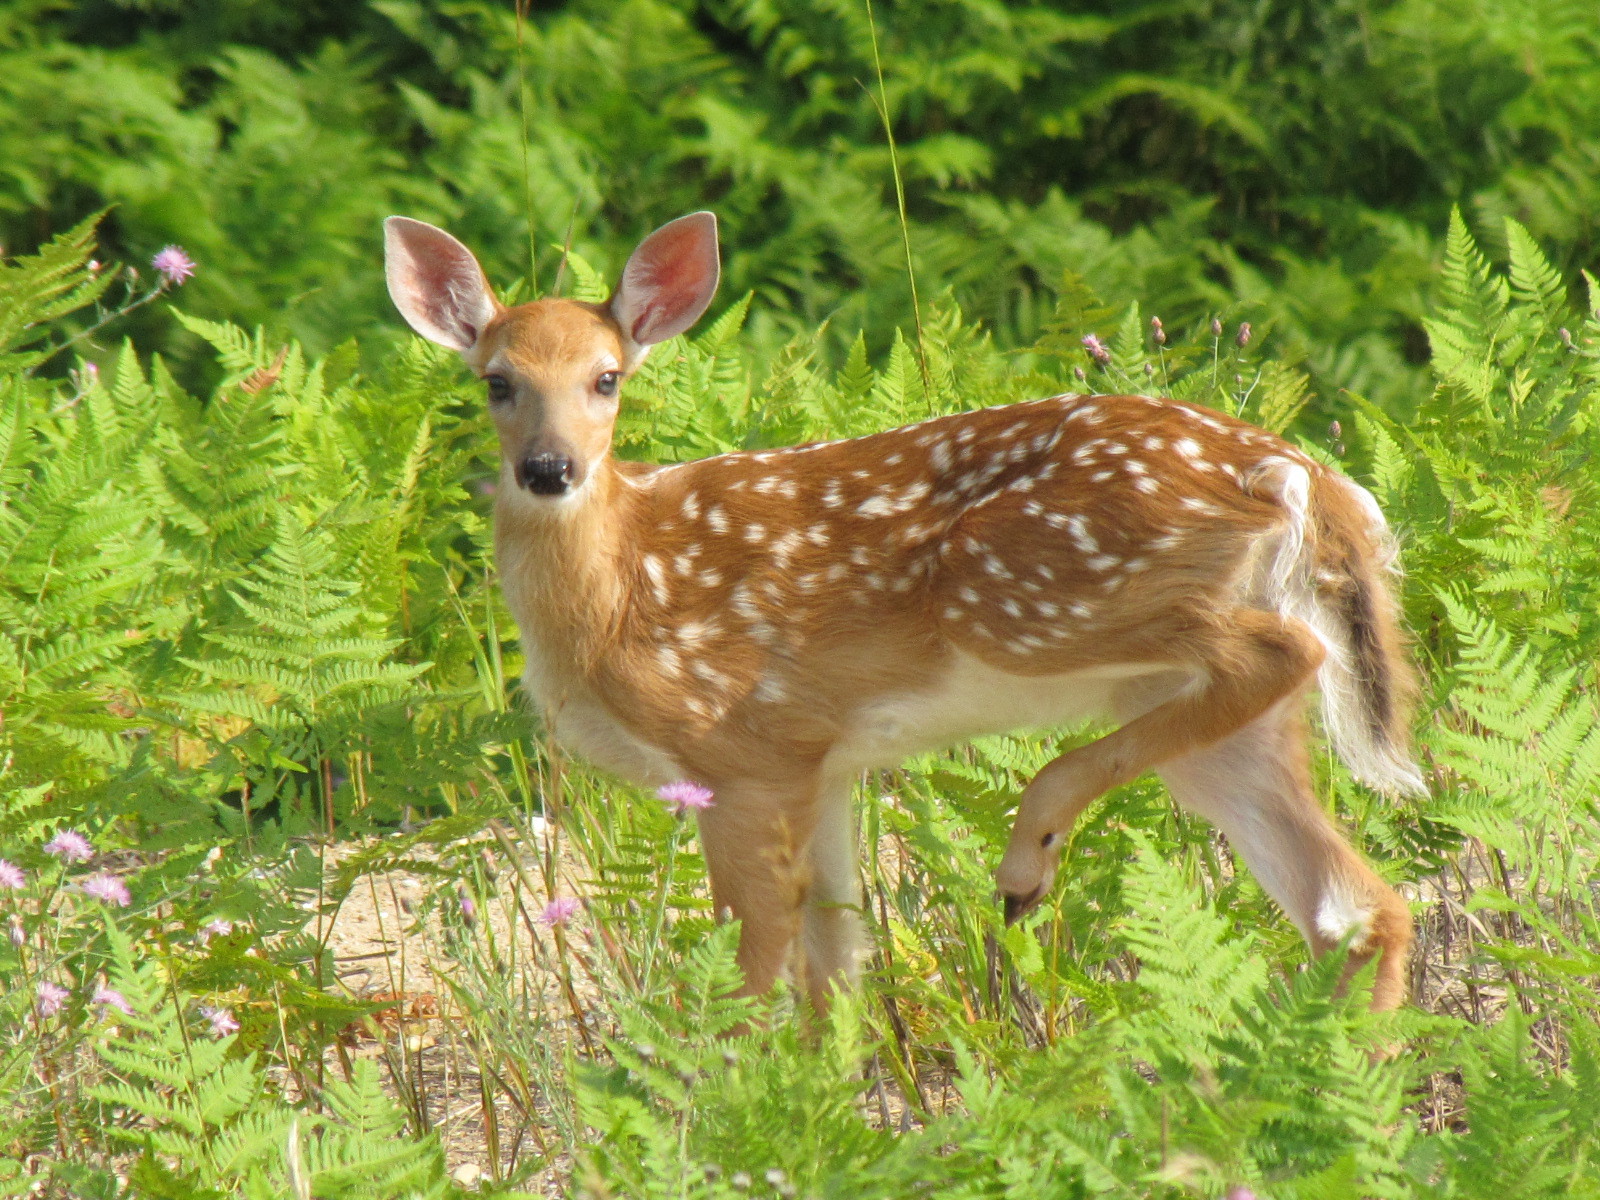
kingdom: Animalia
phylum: Chordata
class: Mammalia
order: Artiodactyla
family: Cervidae
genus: Odocoileus
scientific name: Odocoileus virginianus
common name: White-tailed deer
